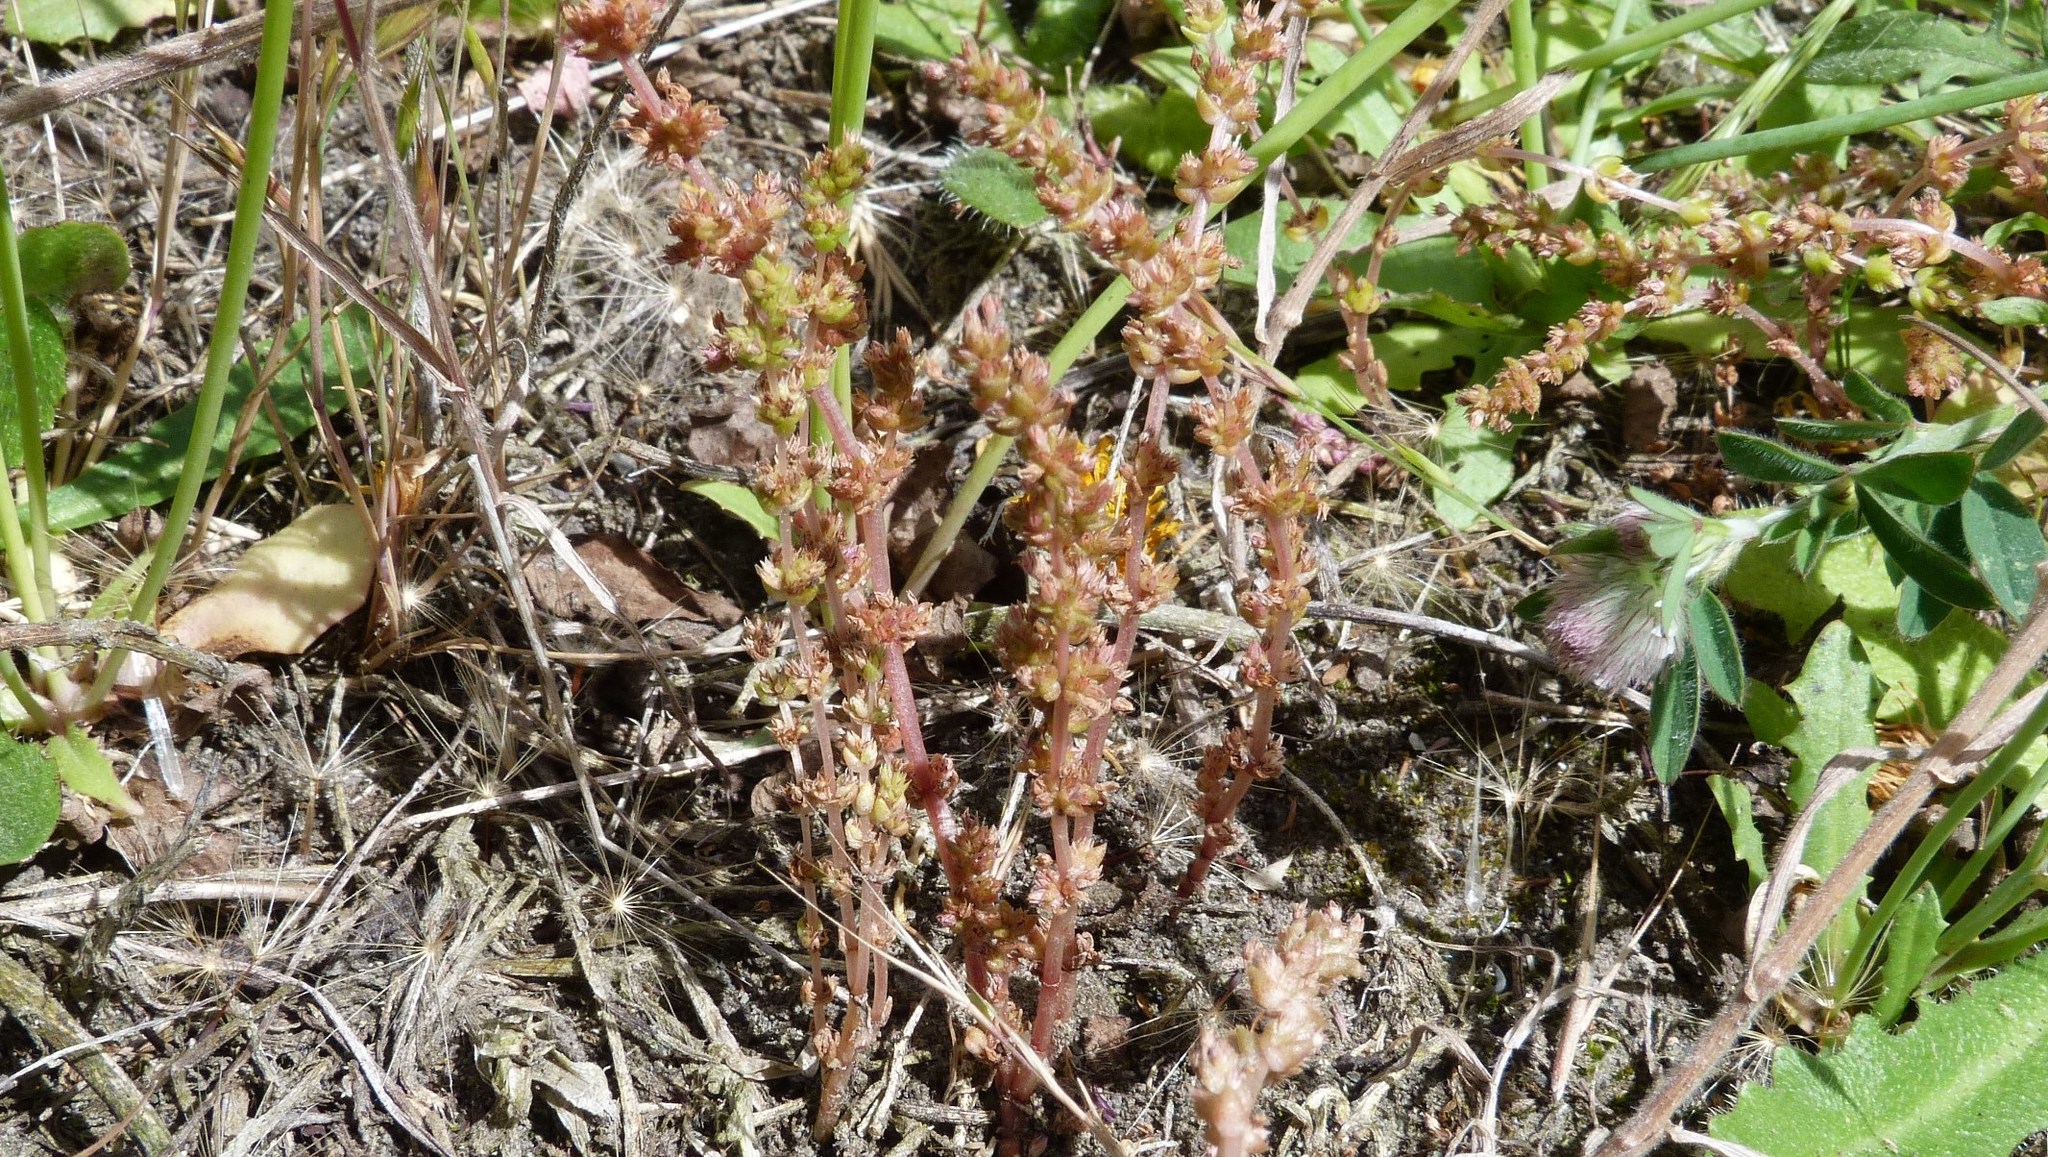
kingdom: Plantae
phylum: Tracheophyta
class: Magnoliopsida
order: Saxifragales
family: Crassulaceae
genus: Crassula
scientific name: Crassula colligata
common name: Pygmyweed
